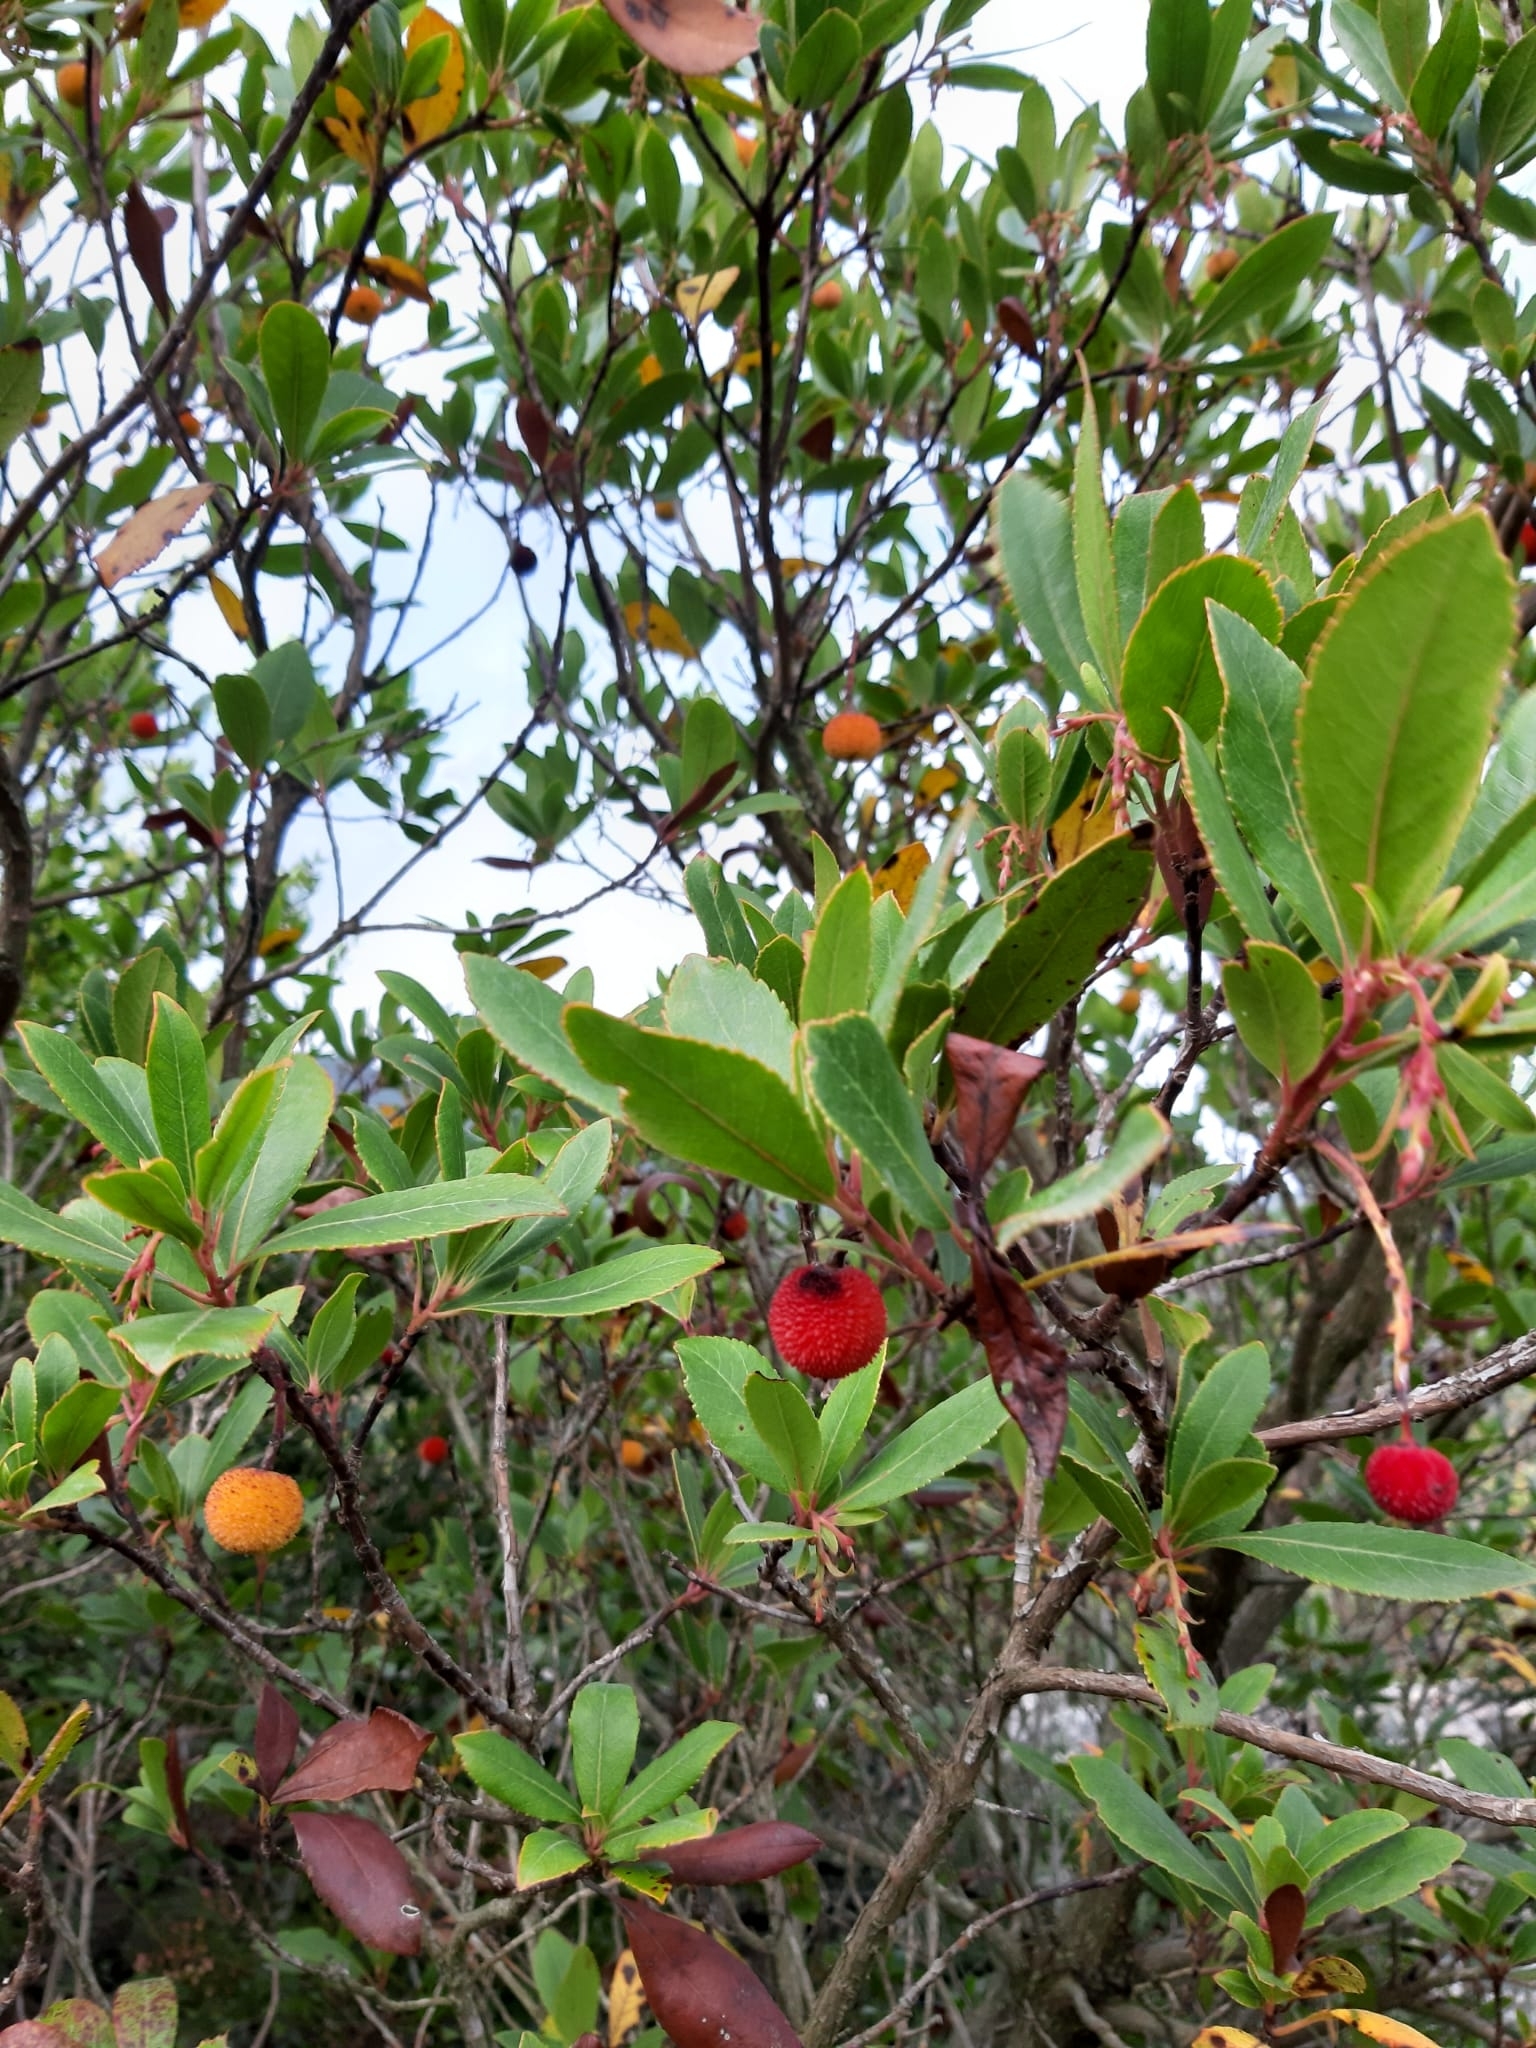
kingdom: Plantae
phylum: Tracheophyta
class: Magnoliopsida
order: Ericales
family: Ericaceae
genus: Arbutus
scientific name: Arbutus unedo
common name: Strawberry-tree
